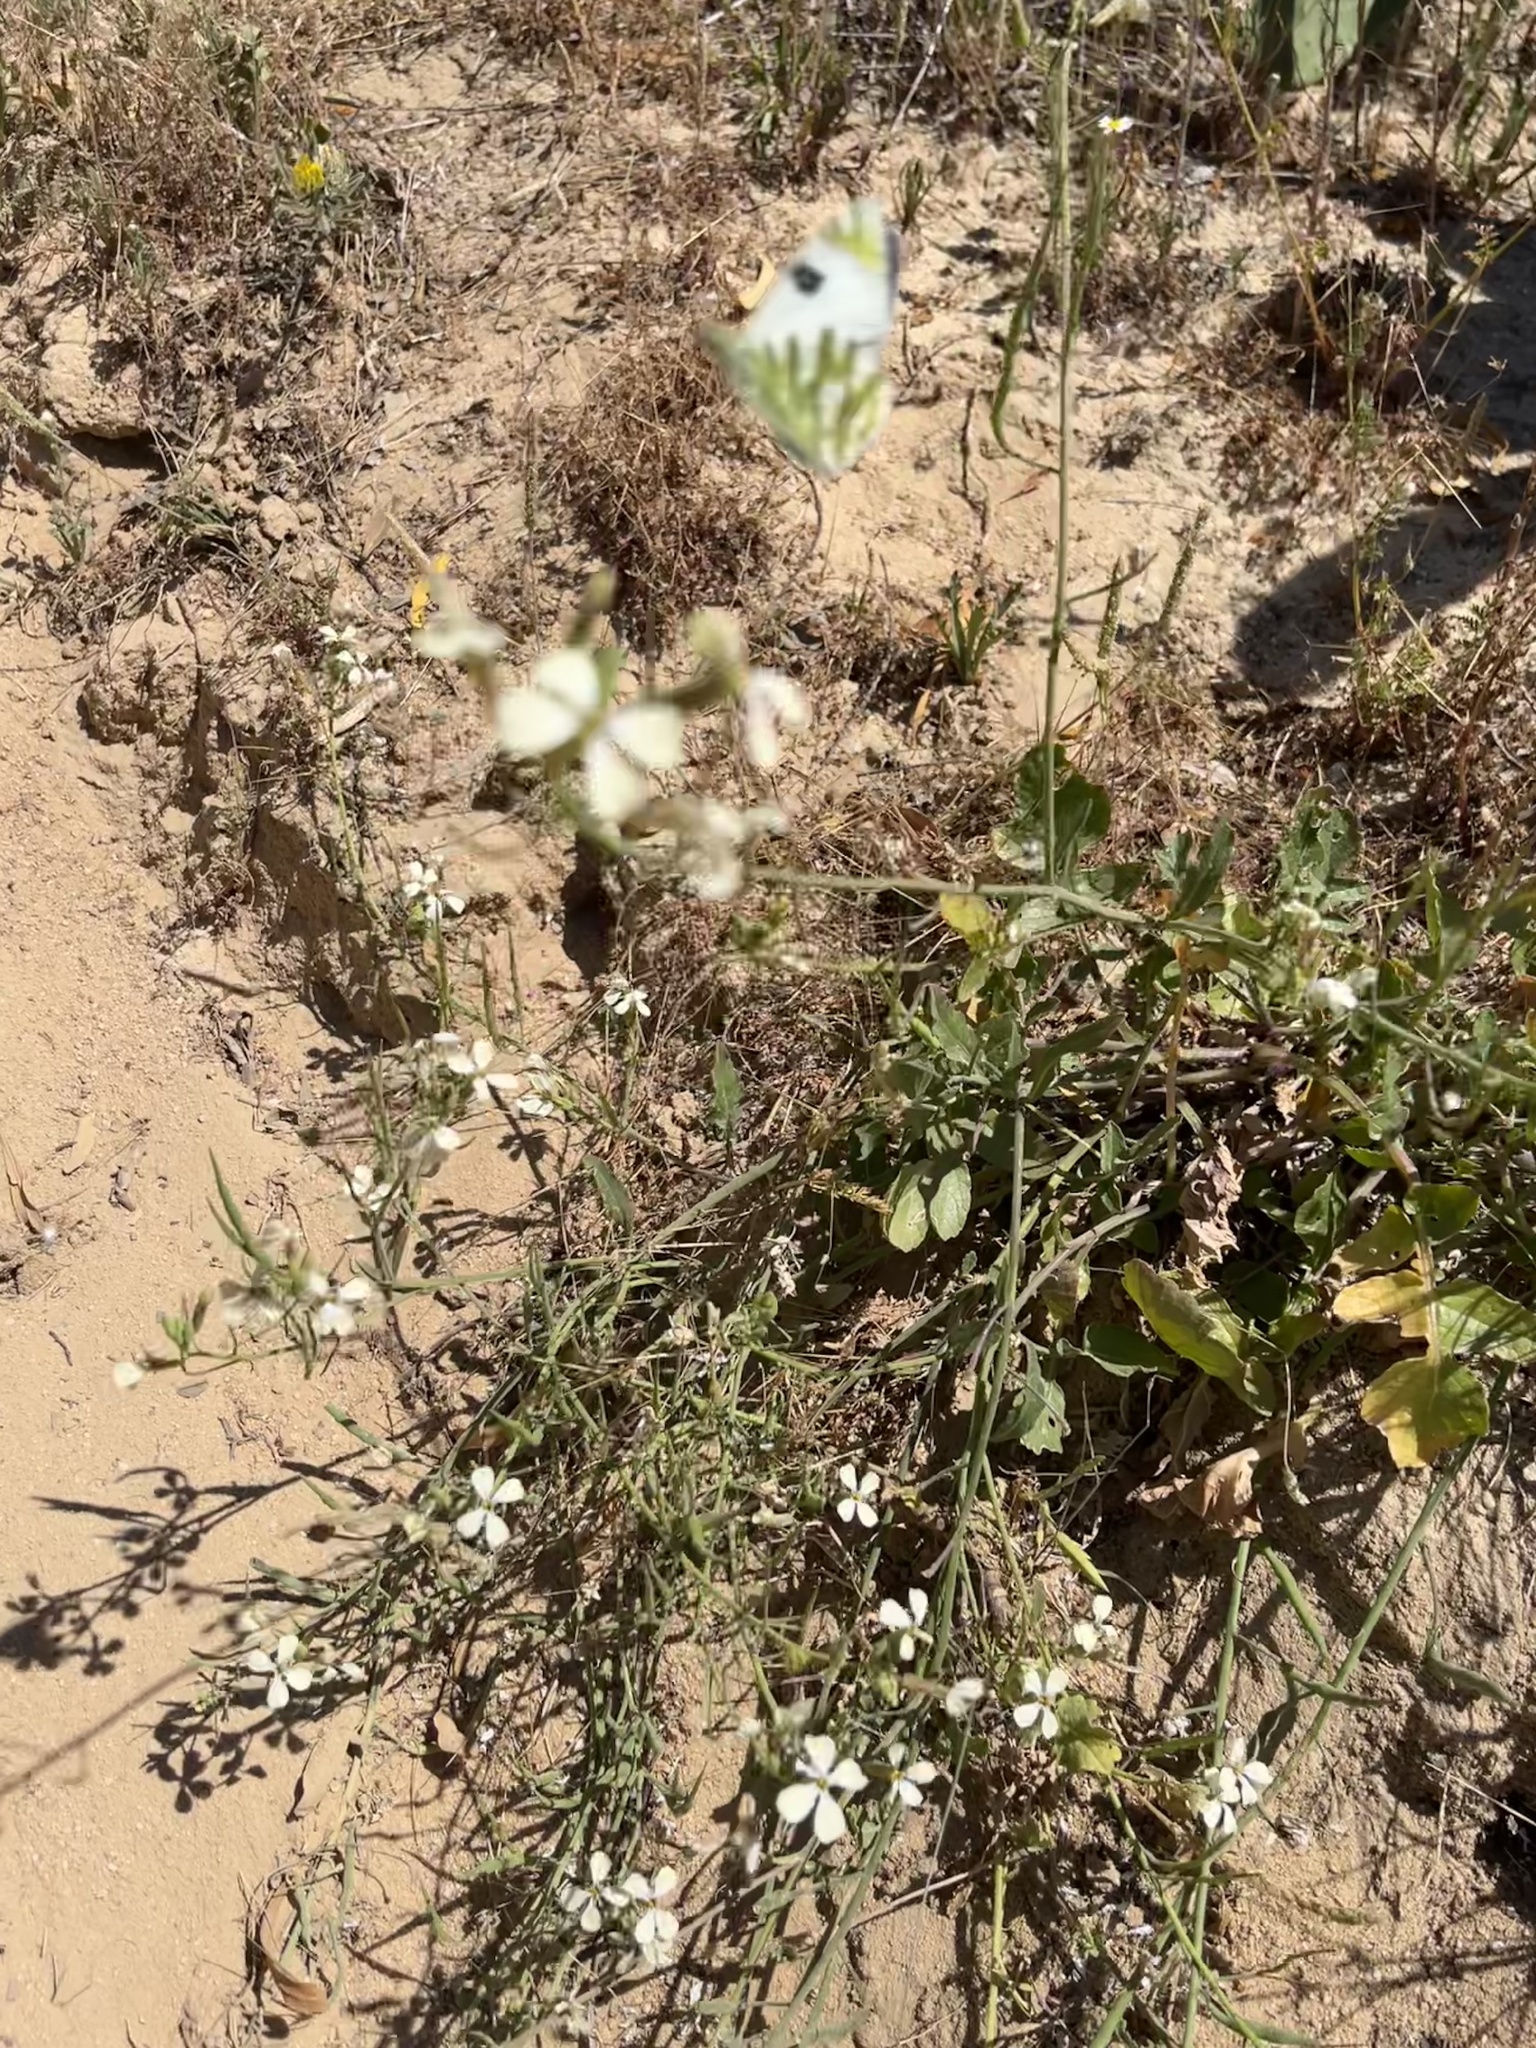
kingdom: Animalia
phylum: Arthropoda
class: Insecta
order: Lepidoptera
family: Pieridae
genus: Euchloe
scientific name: Euchloe belemia
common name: Green-striped white
